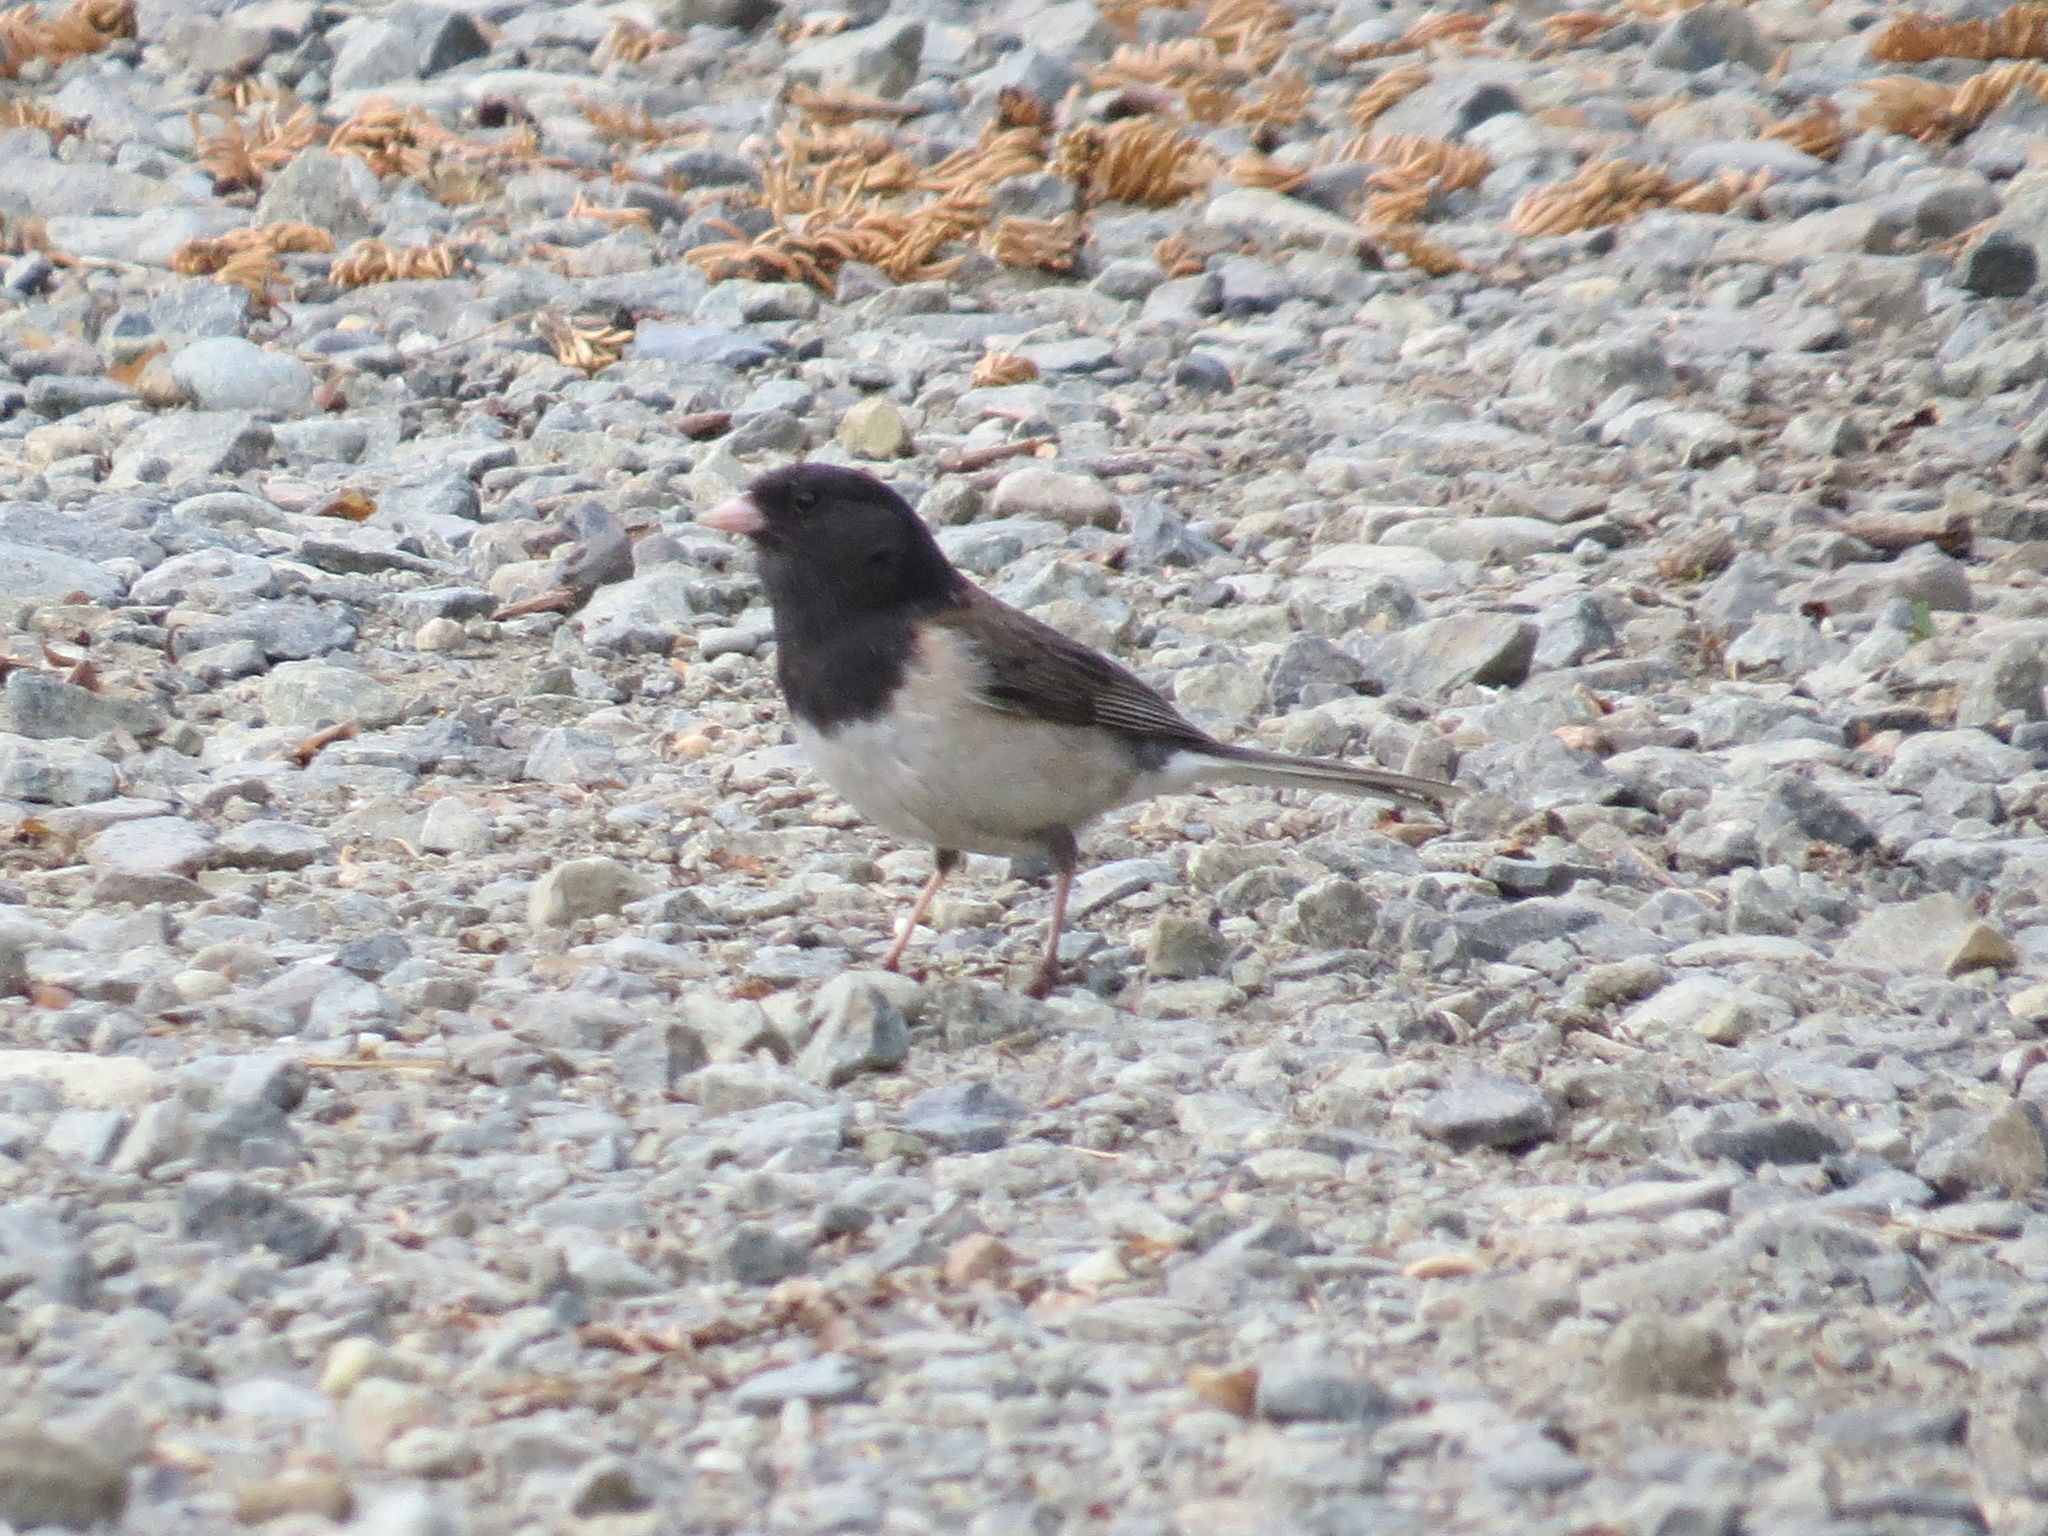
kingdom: Animalia
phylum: Chordata
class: Aves
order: Passeriformes
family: Passerellidae
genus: Junco
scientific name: Junco hyemalis
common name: Dark-eyed junco
